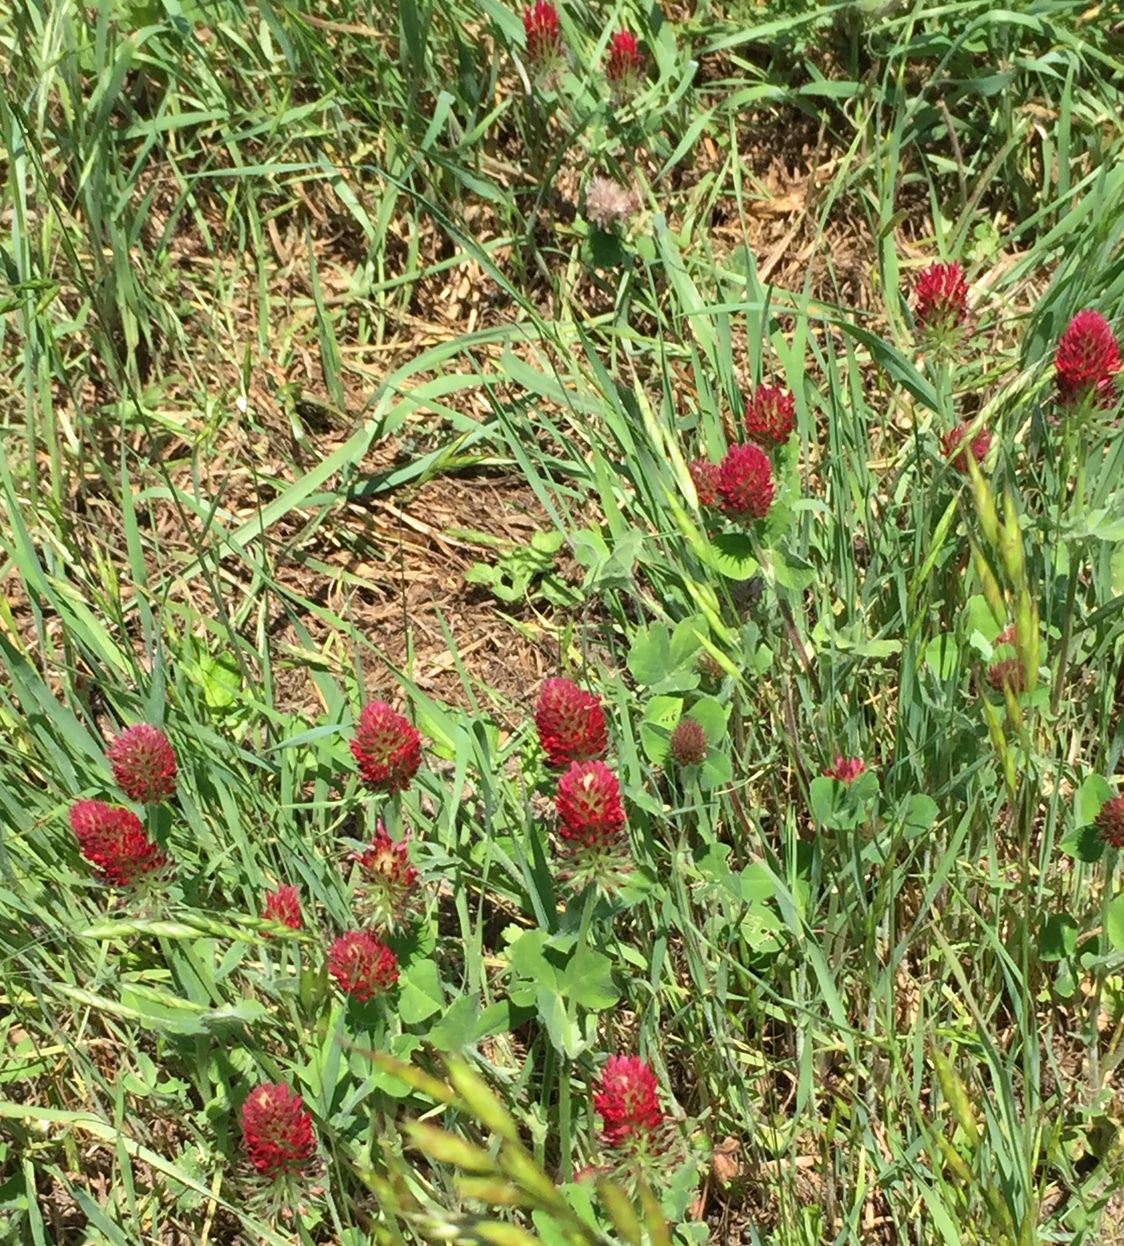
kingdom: Plantae
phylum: Tracheophyta
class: Magnoliopsida
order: Fabales
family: Fabaceae
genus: Trifolium
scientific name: Trifolium incarnatum
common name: Crimson clover
